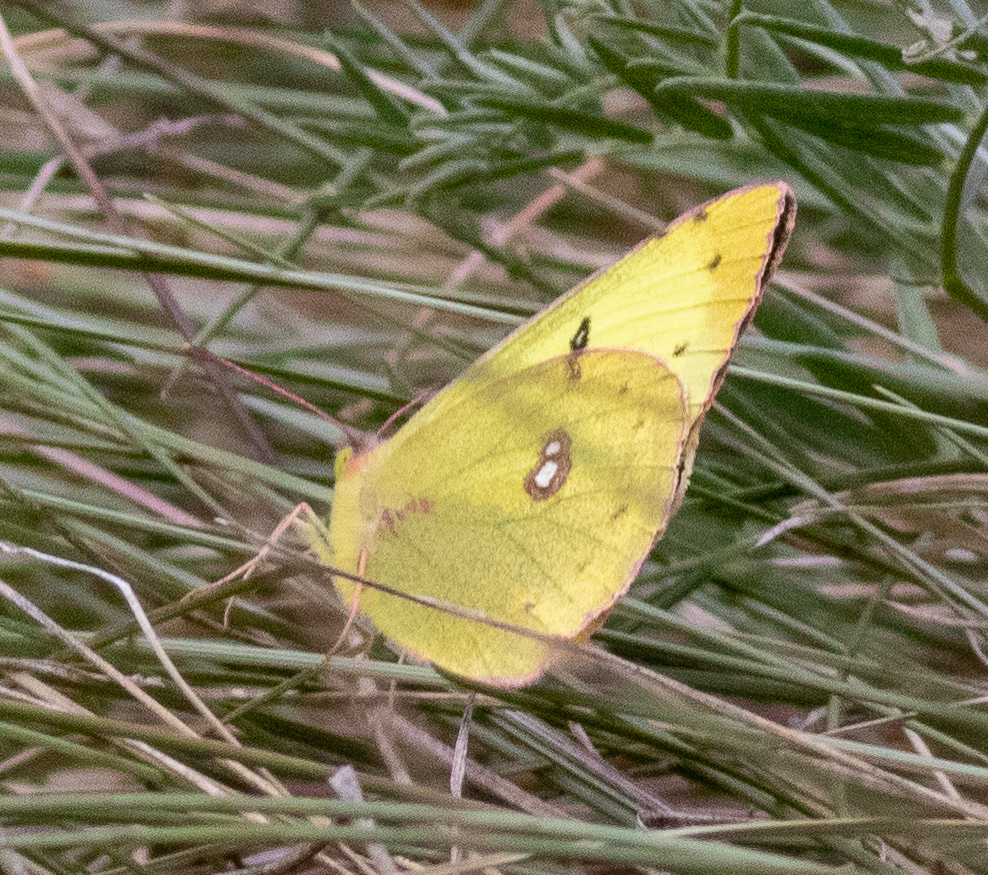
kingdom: Animalia
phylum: Arthropoda
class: Insecta
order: Lepidoptera
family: Pieridae
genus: Colias
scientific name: Colias philodice
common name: Clouded sulphur
